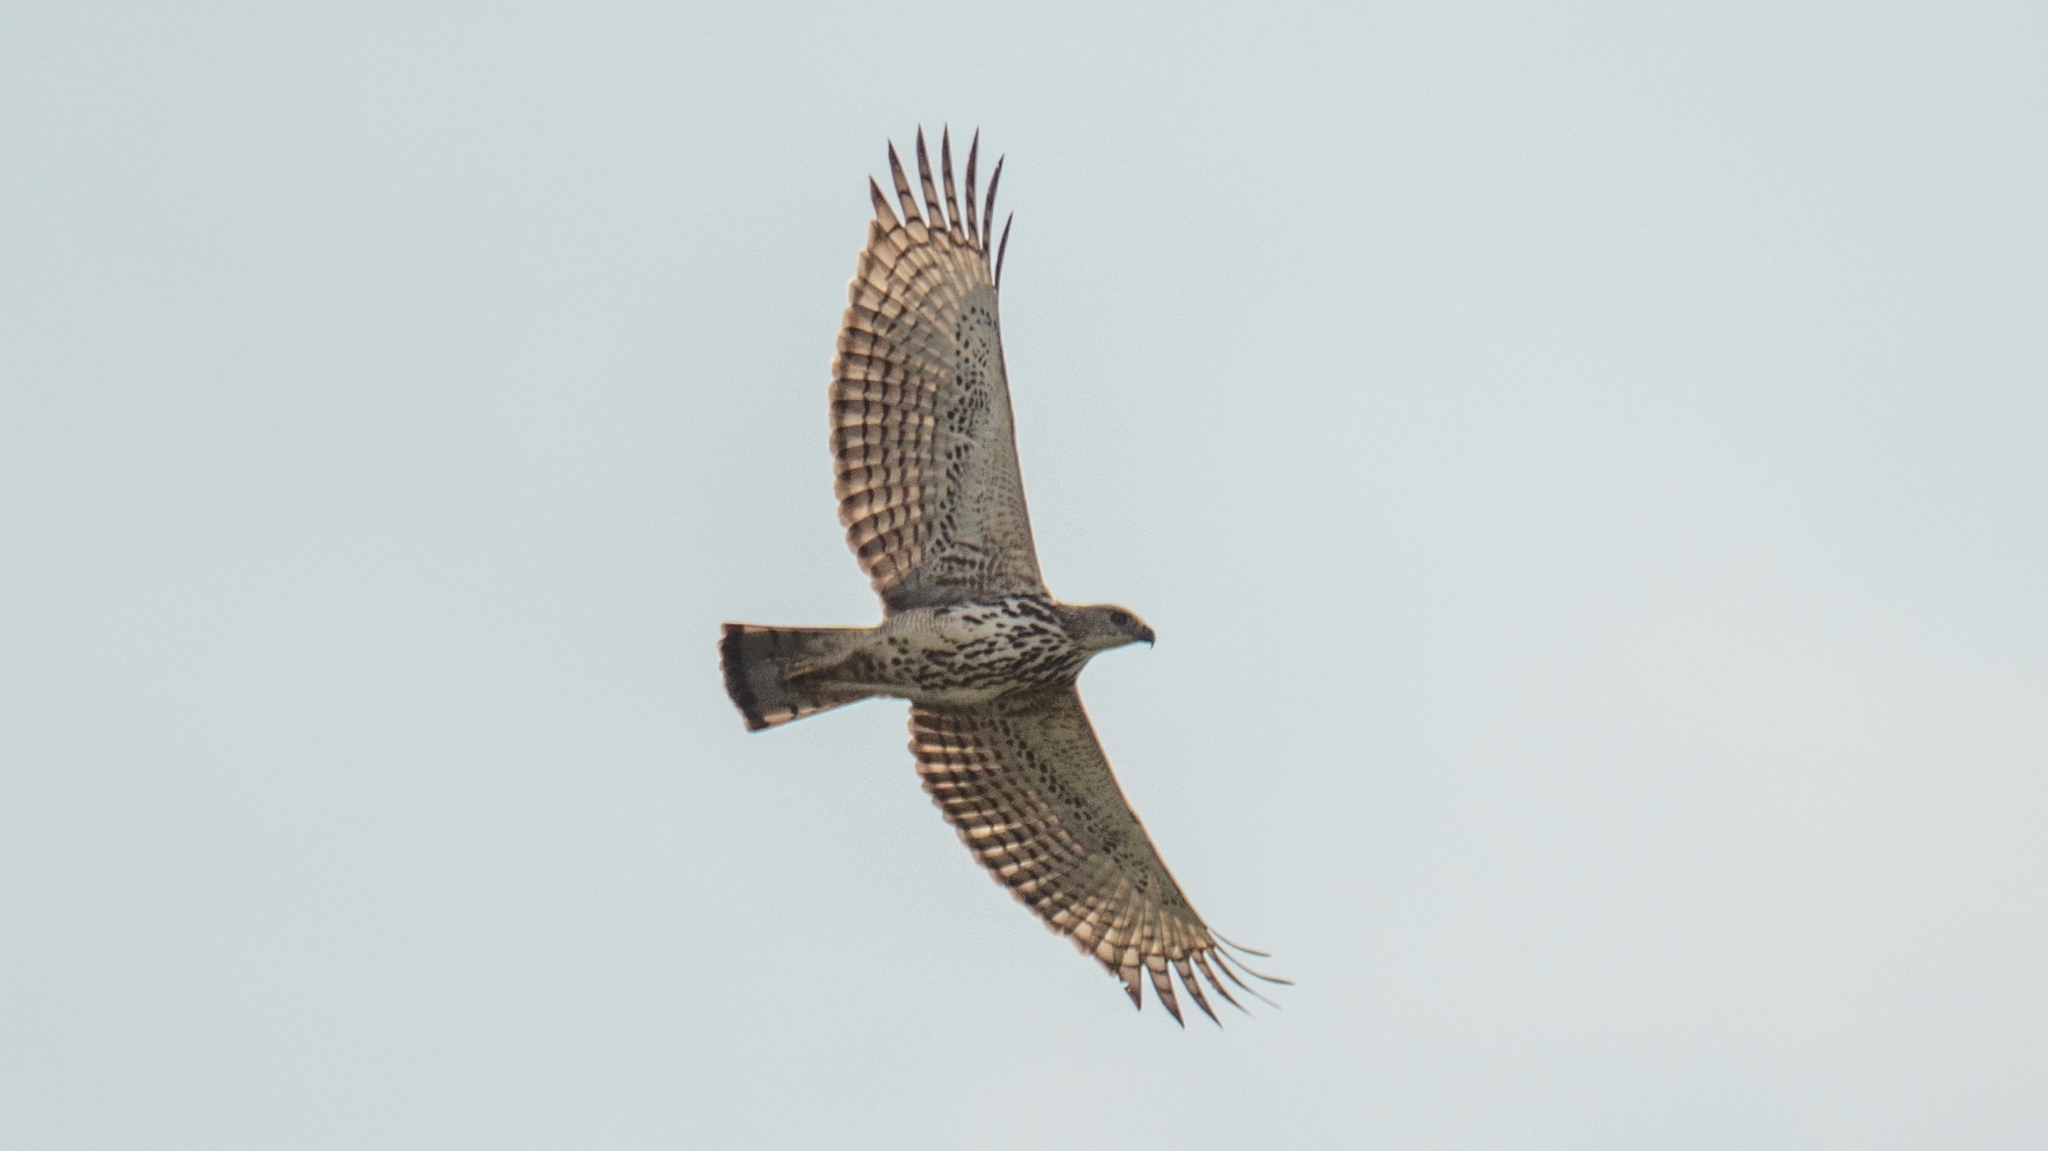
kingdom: Animalia
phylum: Chordata
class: Aves
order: Accipitriformes
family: Accipitridae
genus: Nisaetus
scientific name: Nisaetus cirrhatus
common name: Changeable hawk-eagle
